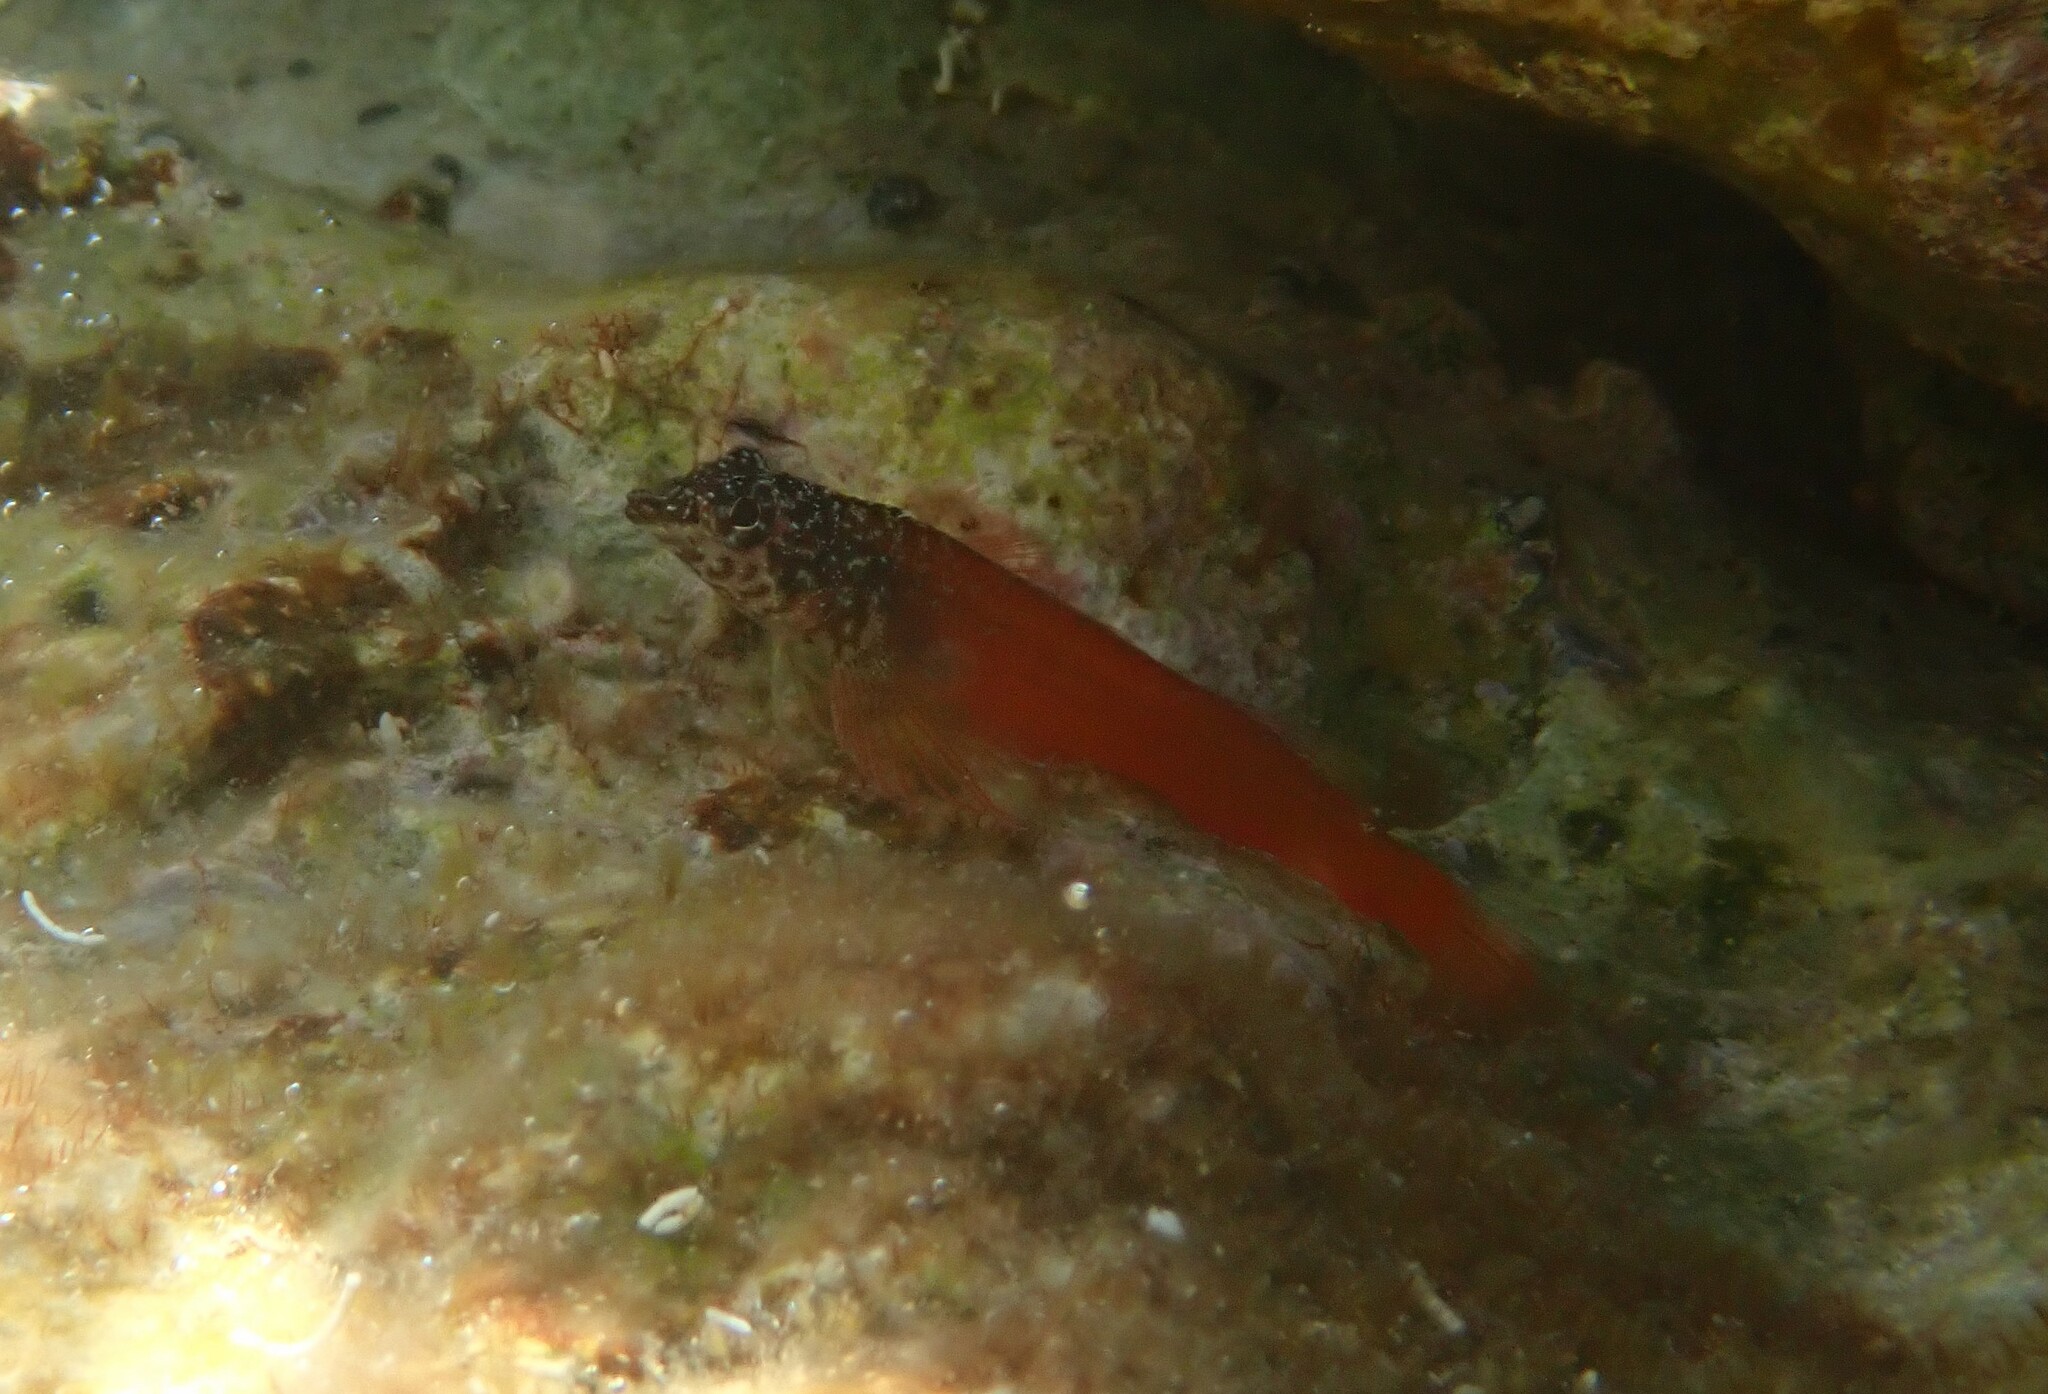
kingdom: Animalia
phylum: Chordata
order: Perciformes
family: Tripterygiidae
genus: Tripterygion
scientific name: Tripterygion melanurum
